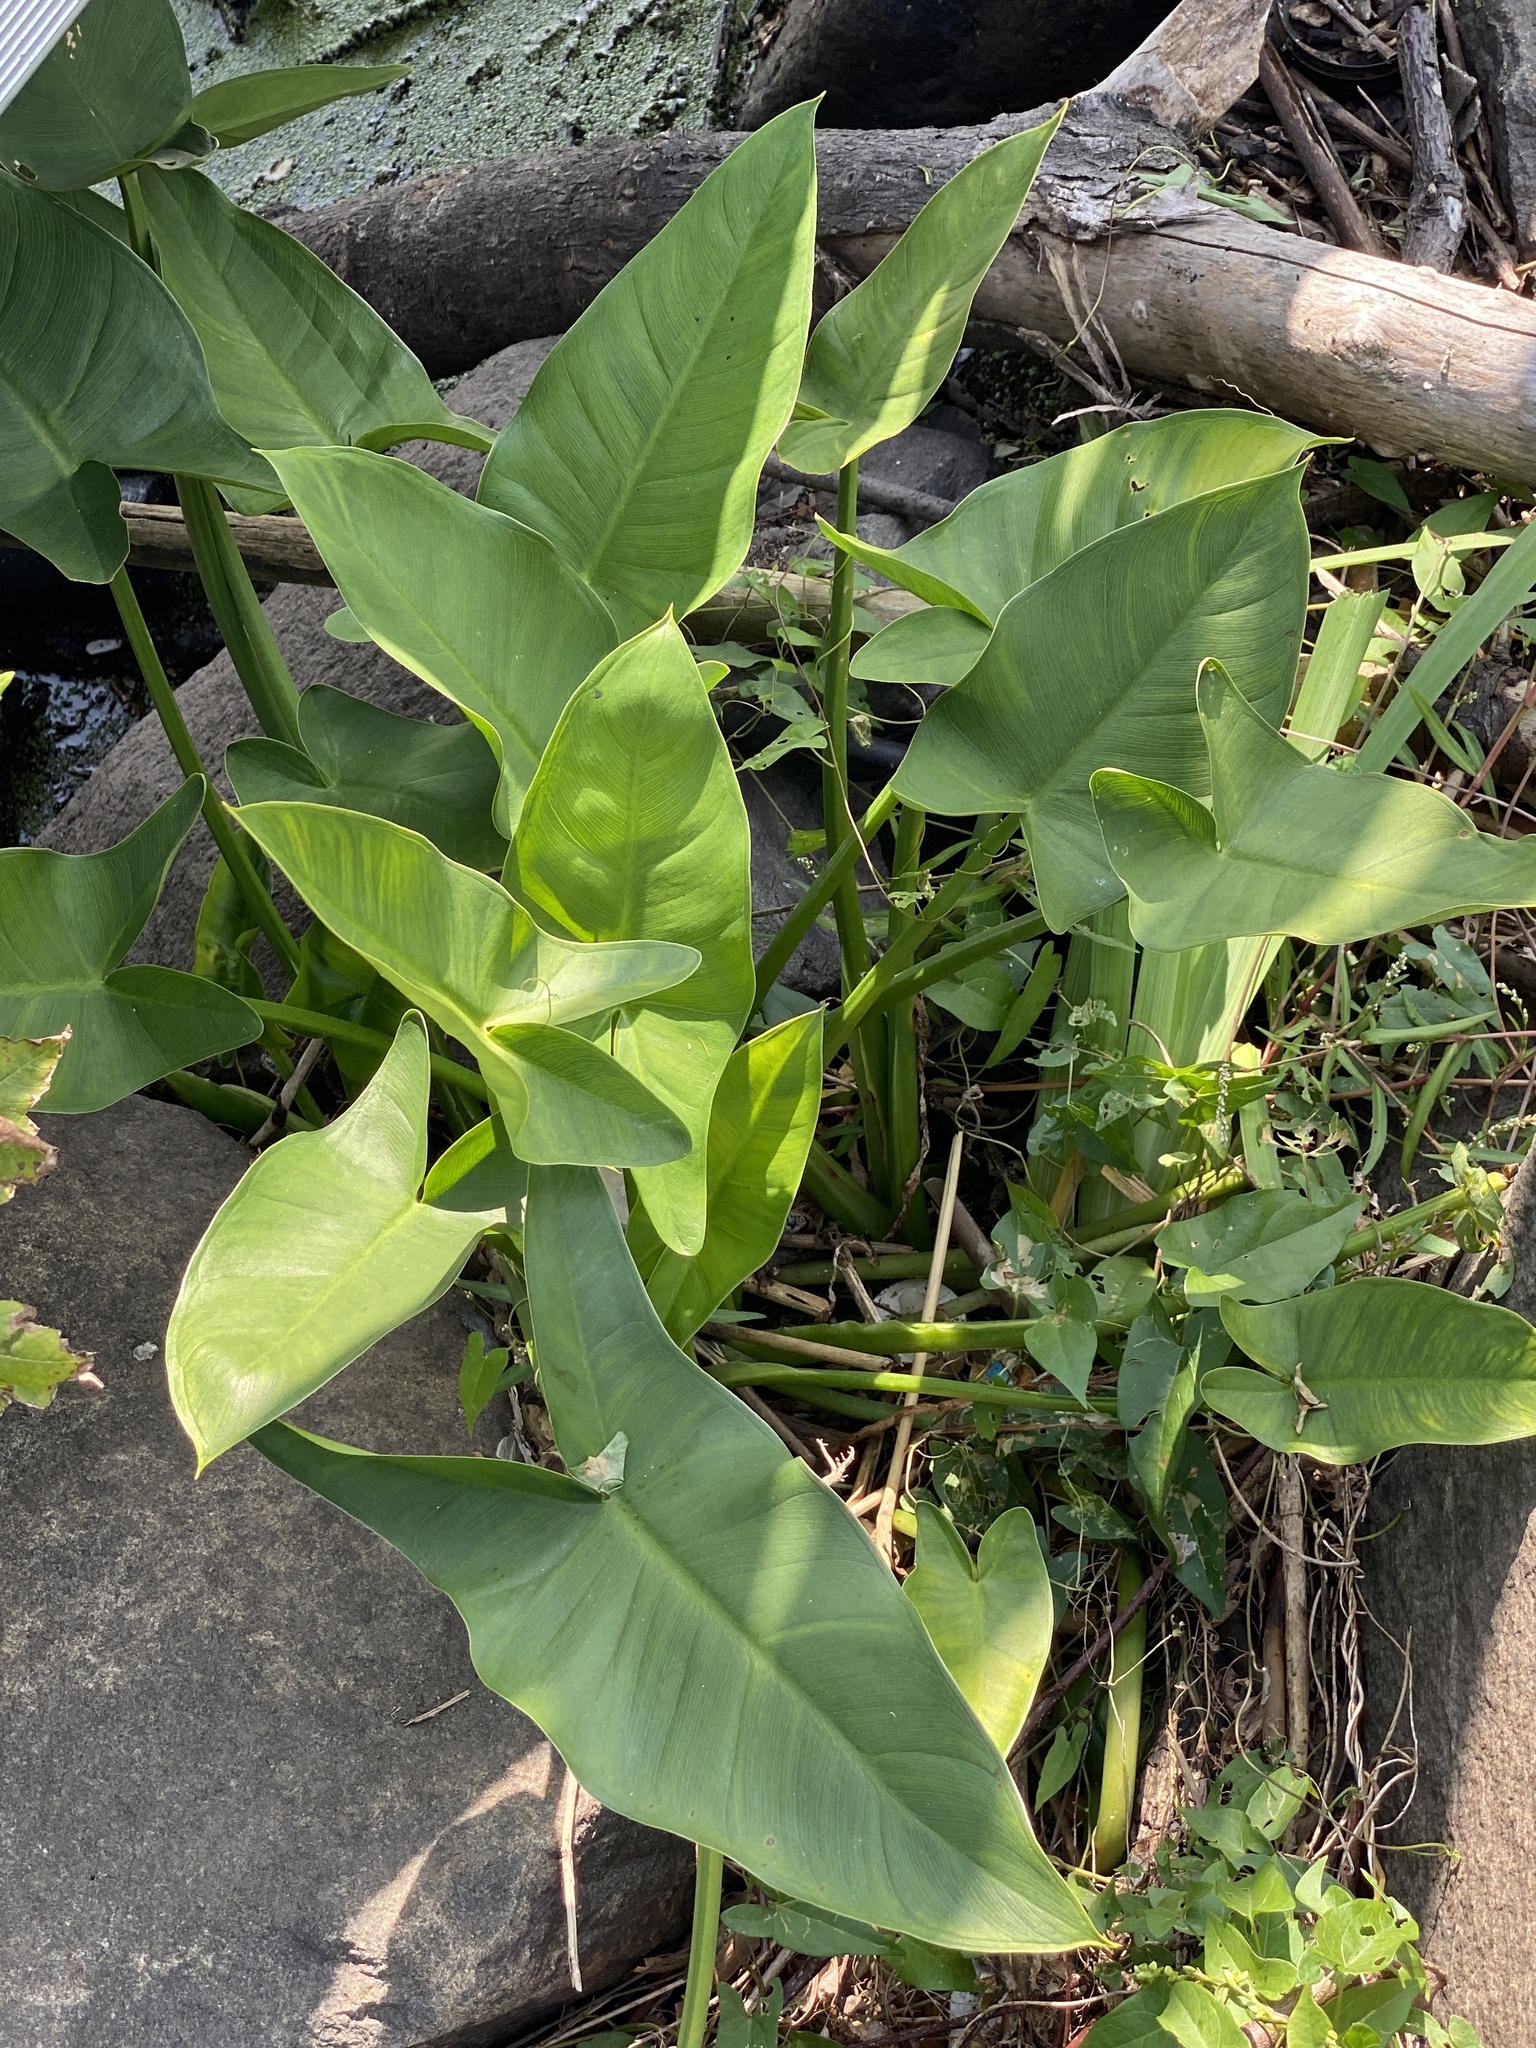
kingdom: Plantae
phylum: Tracheophyta
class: Liliopsida
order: Alismatales
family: Araceae
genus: Peltandra
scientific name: Peltandra virginica
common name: Arrow arum
